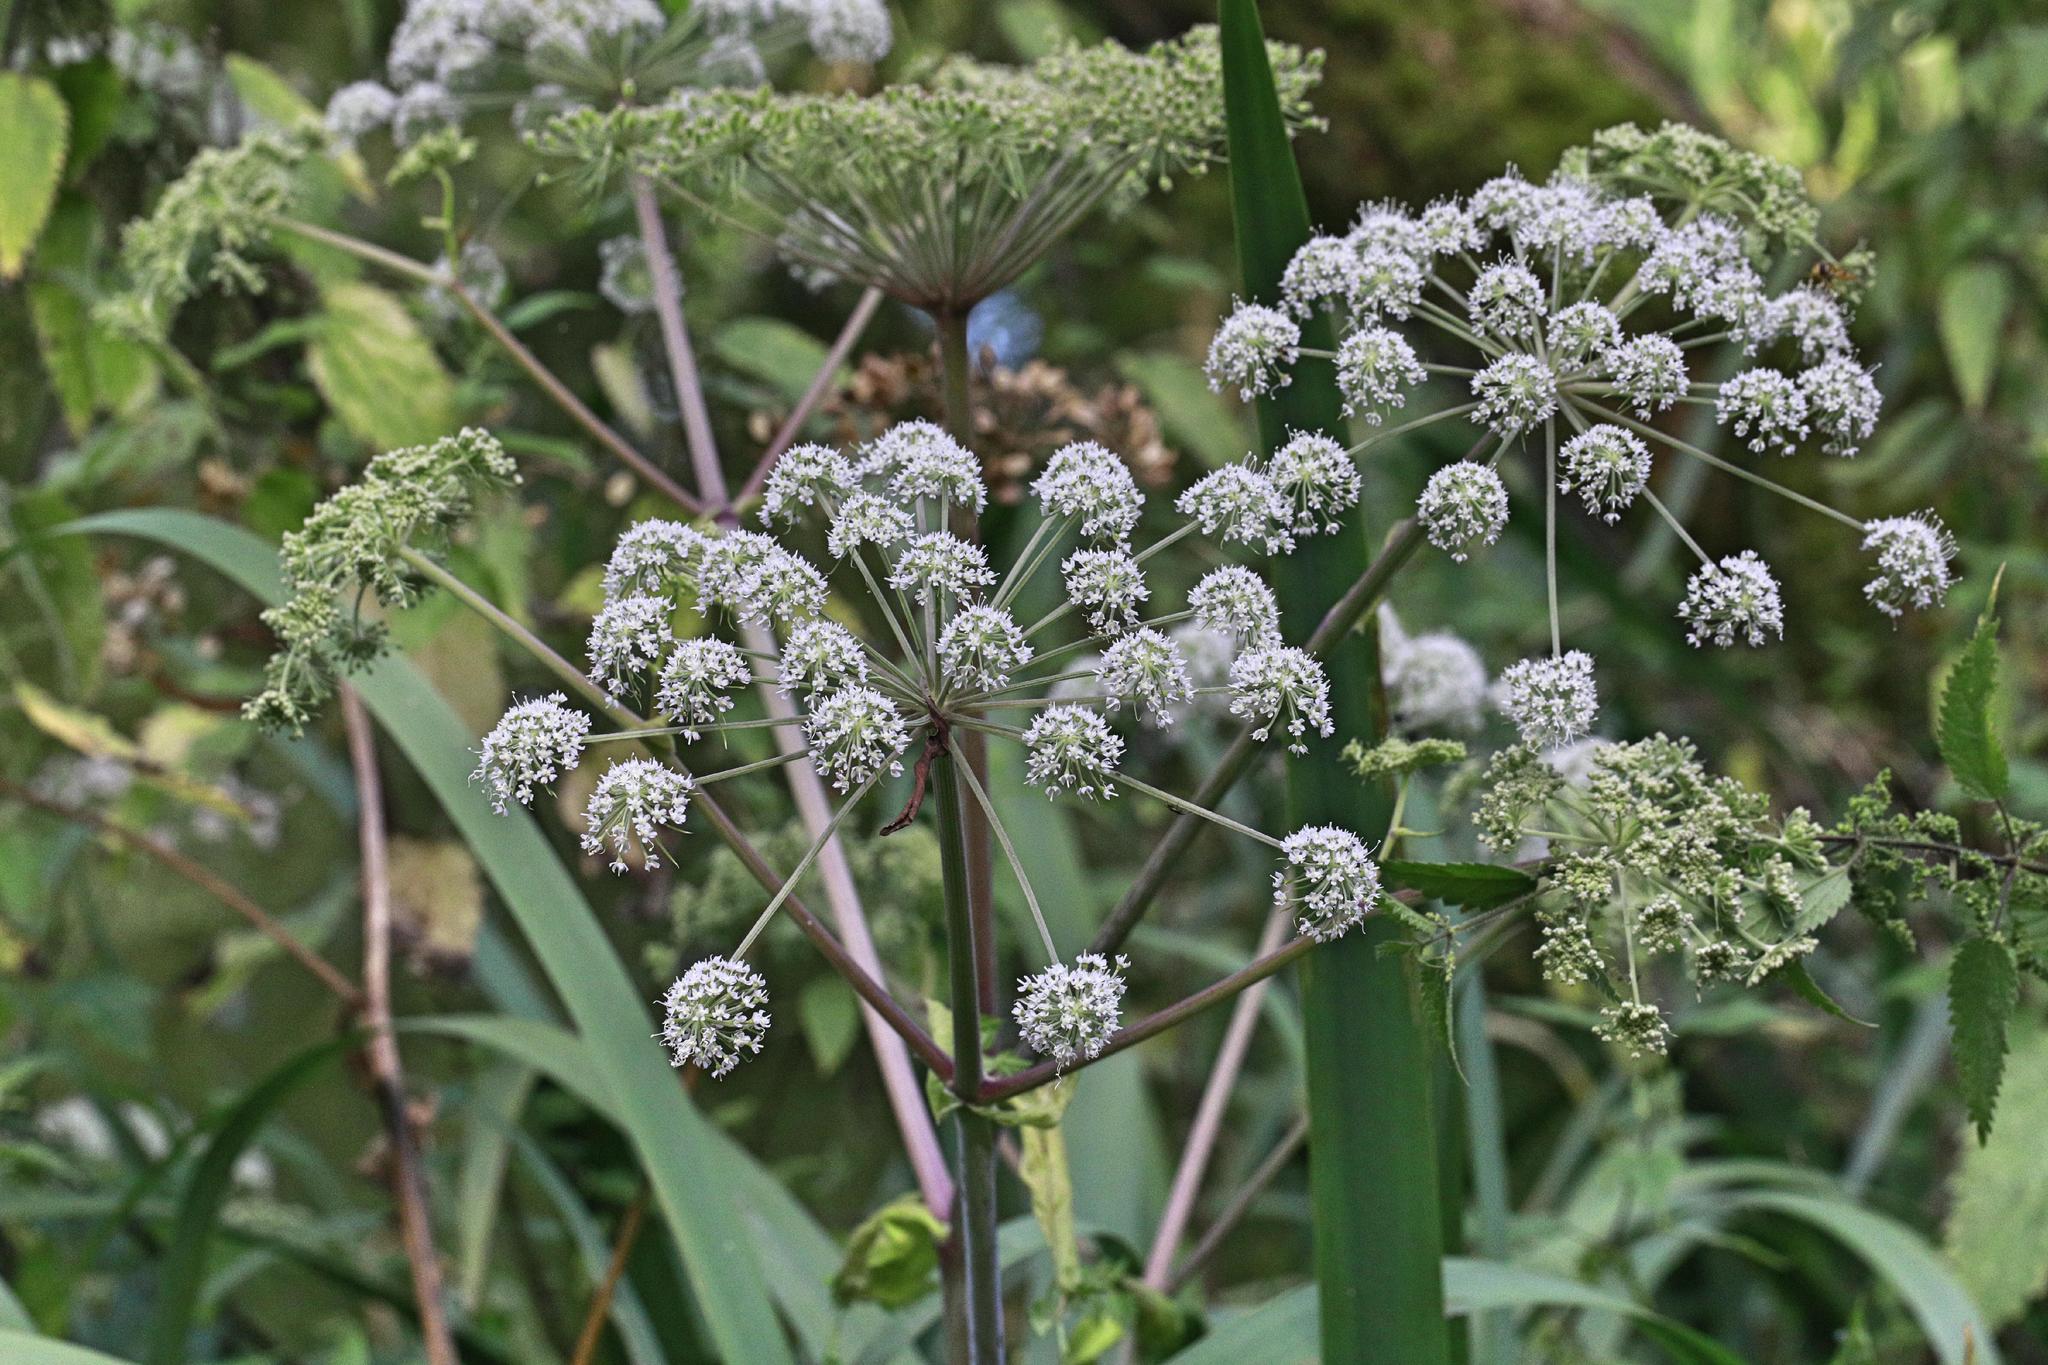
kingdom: Plantae
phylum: Tracheophyta
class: Magnoliopsida
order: Apiales
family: Apiaceae
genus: Angelica
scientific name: Angelica sylvestris
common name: Wild angelica
